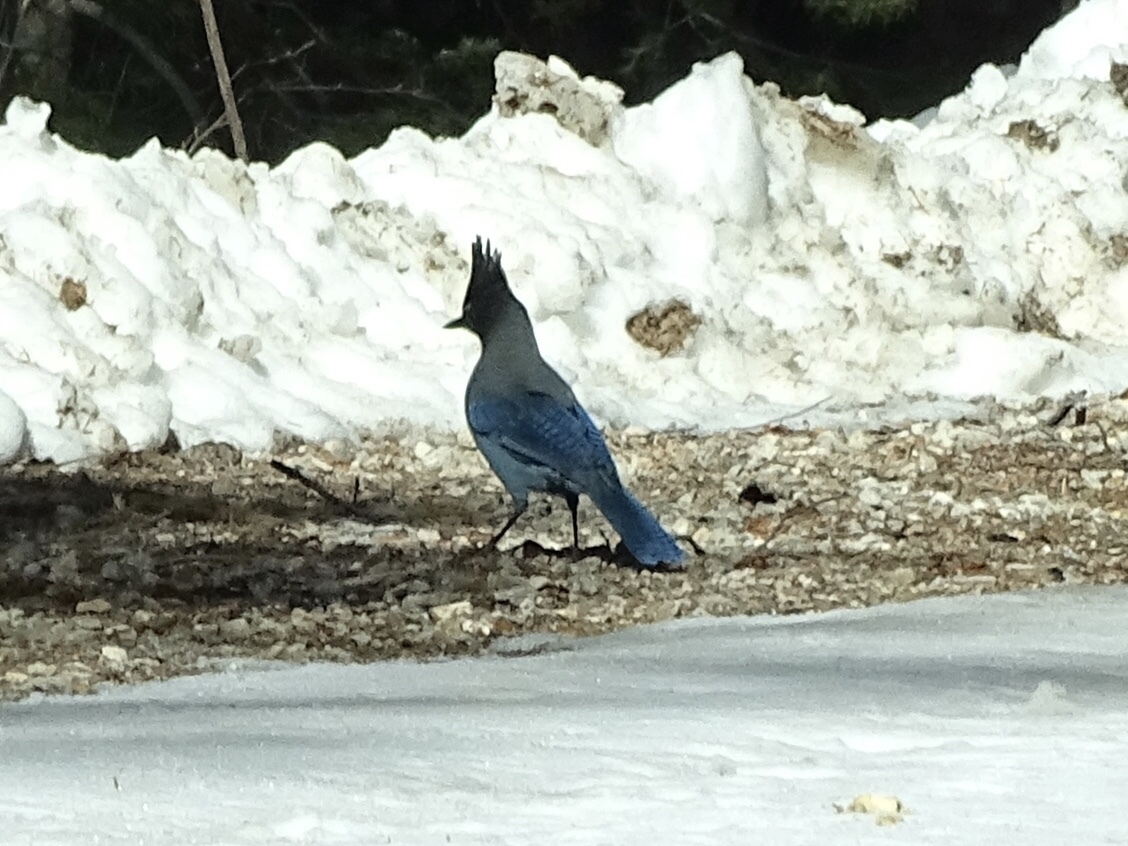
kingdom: Animalia
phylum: Chordata
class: Aves
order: Passeriformes
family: Corvidae
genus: Cyanocitta
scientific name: Cyanocitta stelleri
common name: Steller's jay
